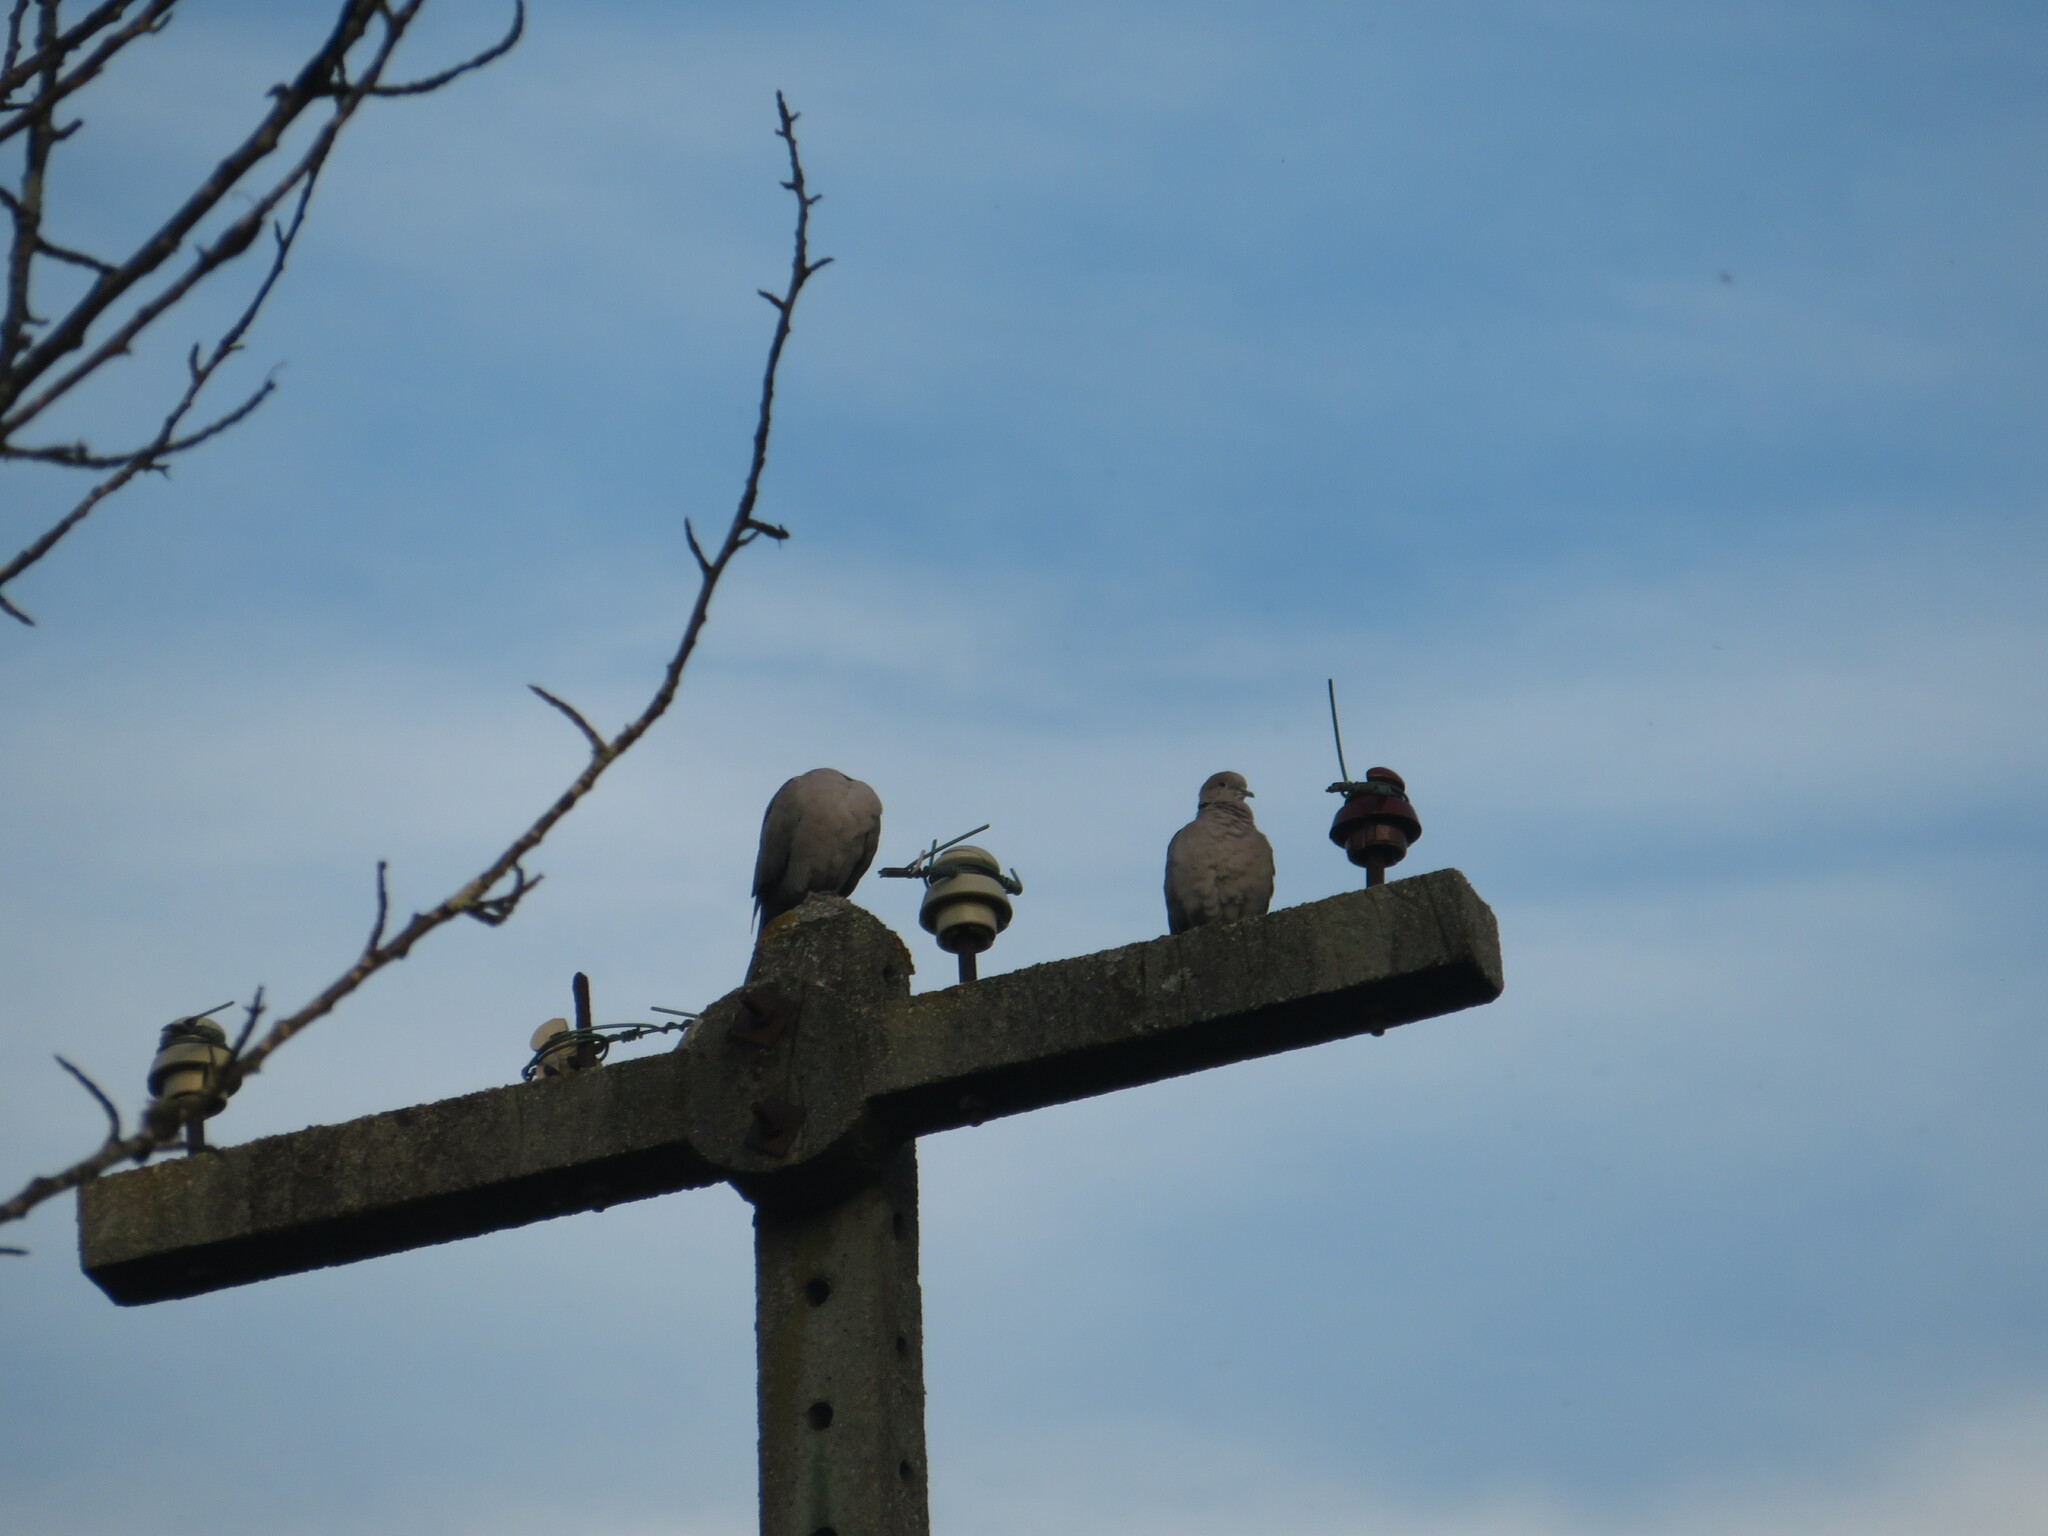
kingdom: Animalia
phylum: Chordata
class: Aves
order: Columbiformes
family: Columbidae
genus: Streptopelia
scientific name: Streptopelia decaocto
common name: Eurasian collared dove
